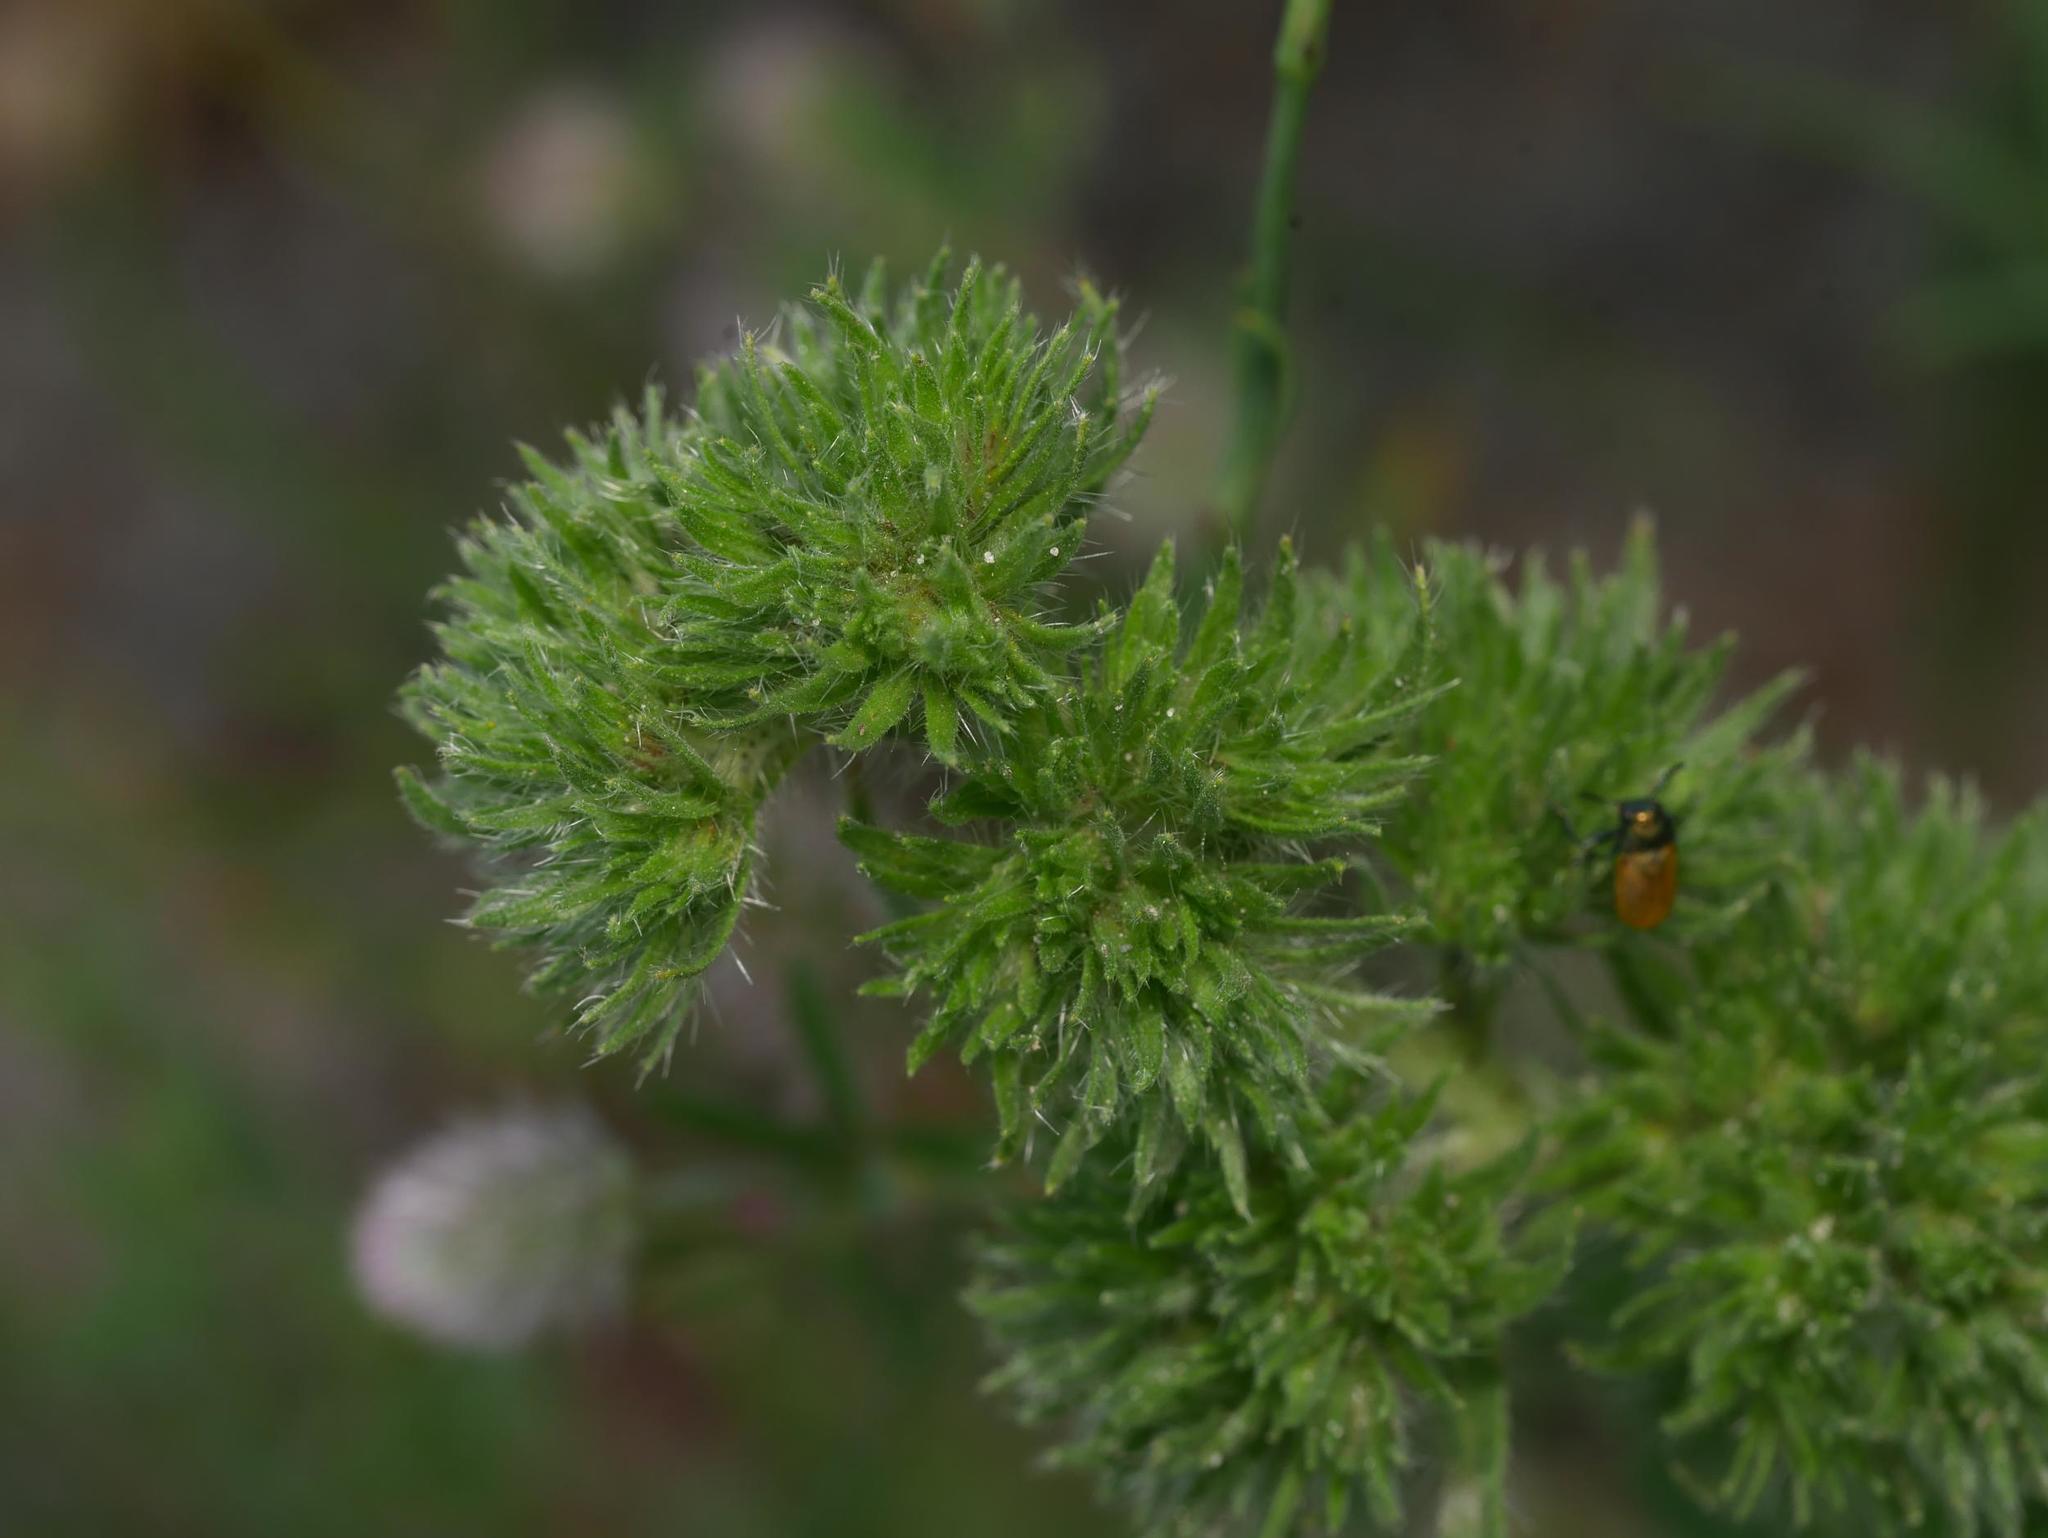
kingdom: Animalia
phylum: Arthropoda
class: Arachnida
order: Trombidiformes
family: Eriophyidae
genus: Aceria
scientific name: Aceria echii
